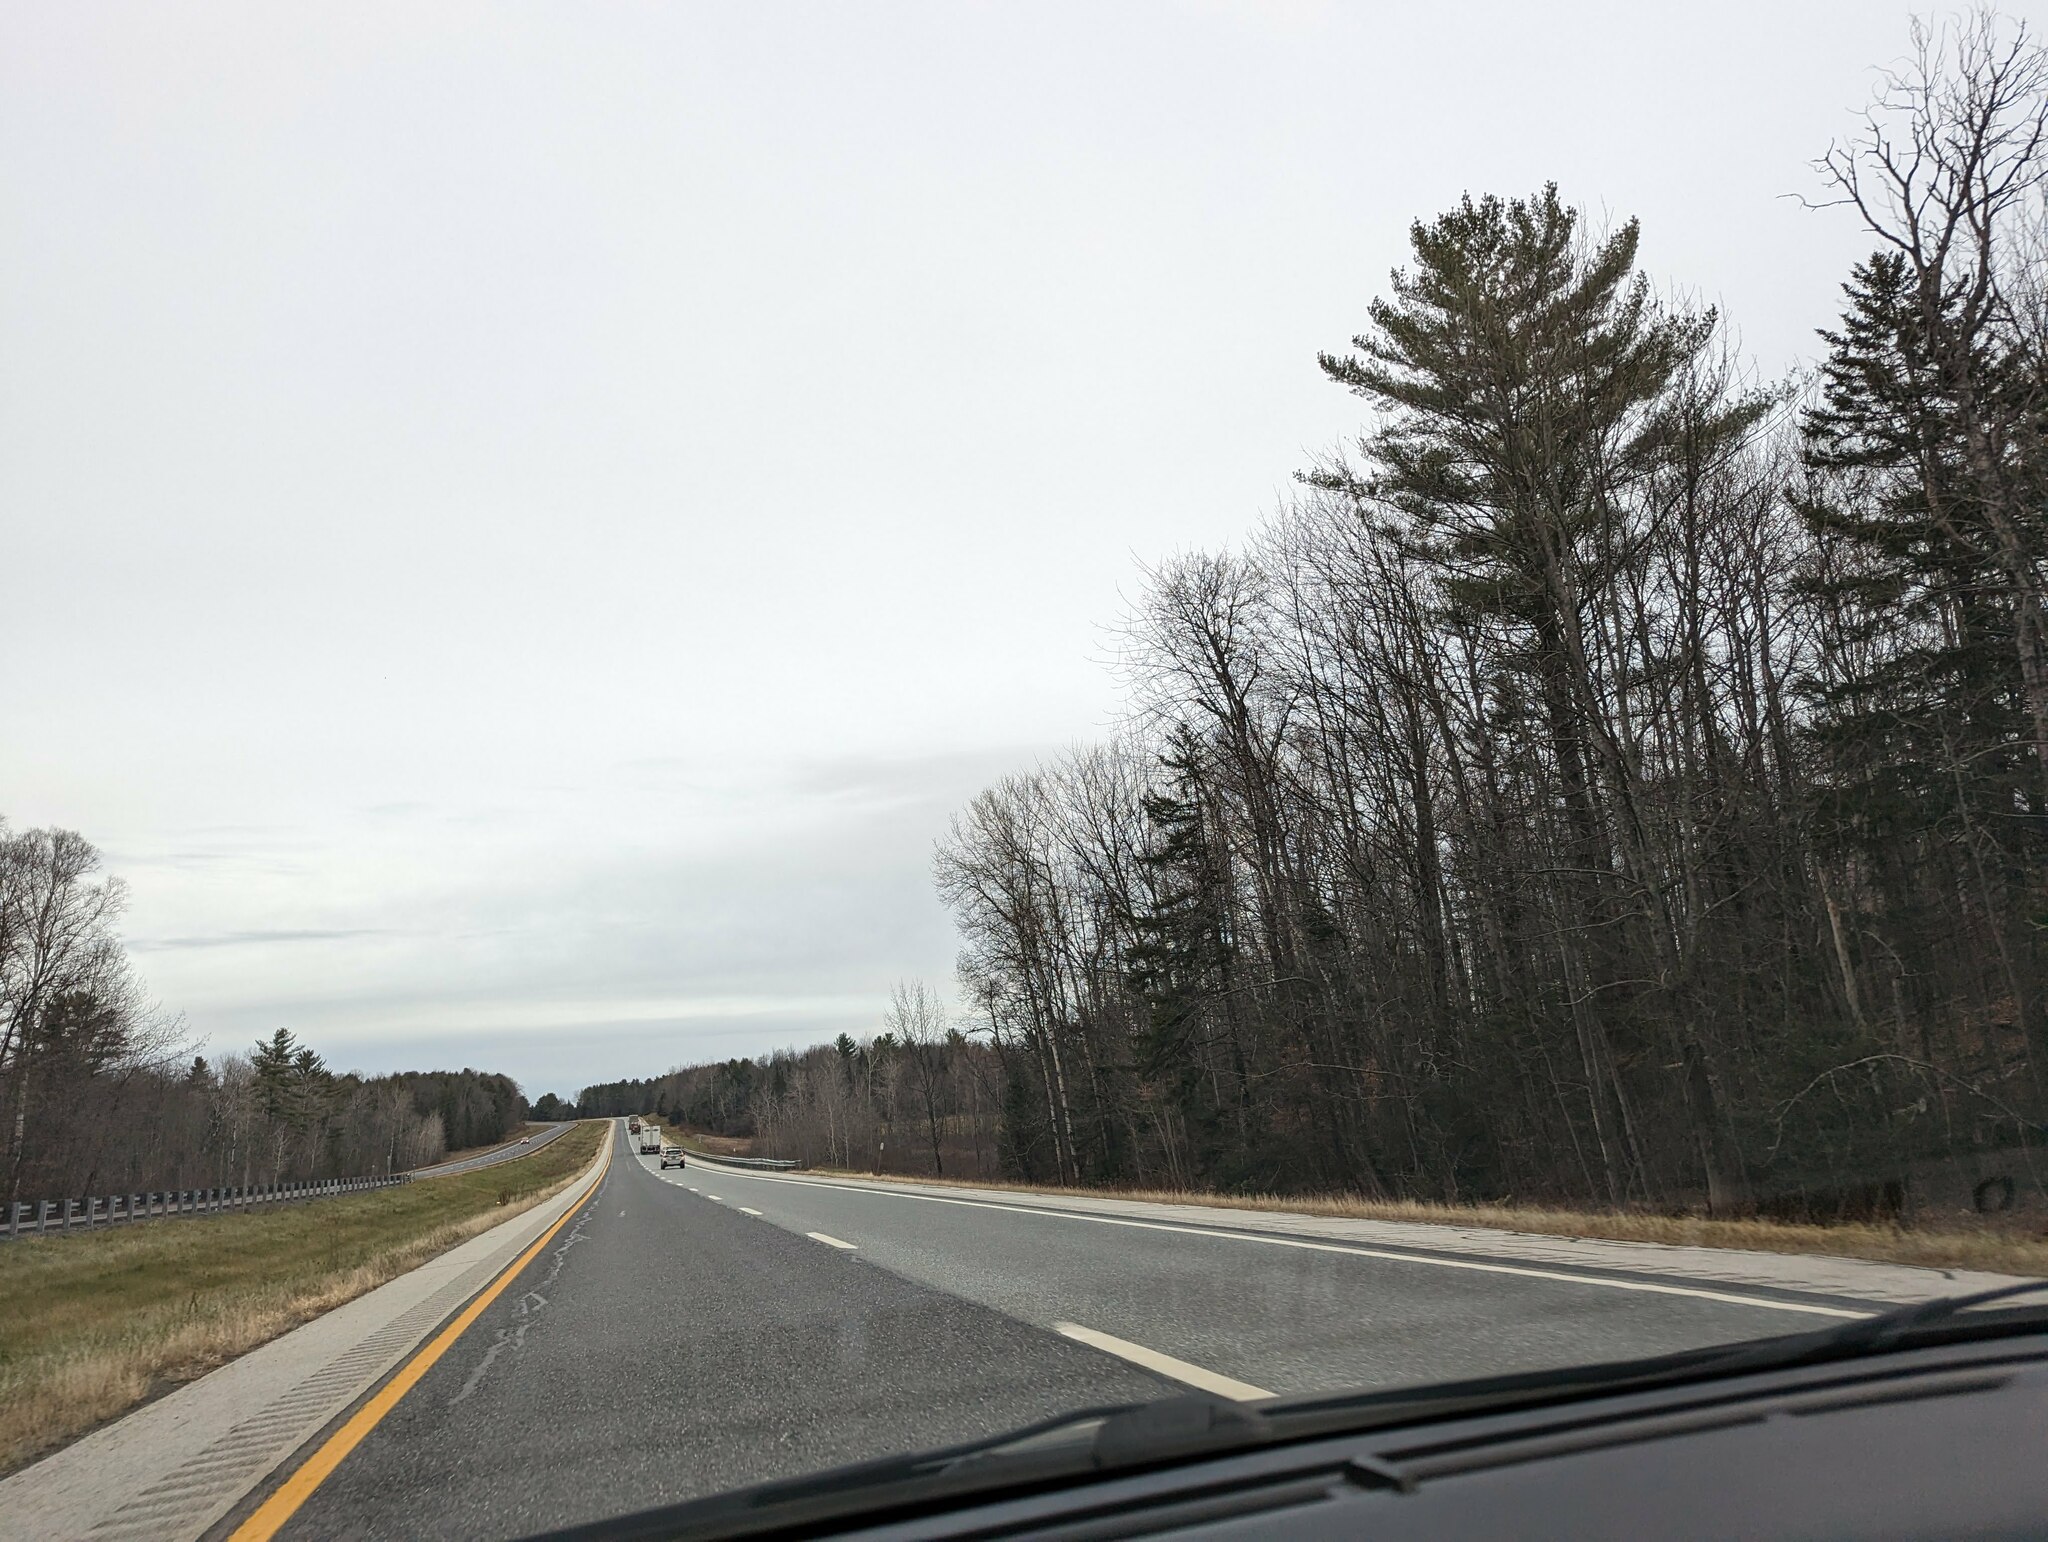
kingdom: Plantae
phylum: Tracheophyta
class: Pinopsida
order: Pinales
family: Pinaceae
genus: Pinus
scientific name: Pinus strobus
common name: Weymouth pine
